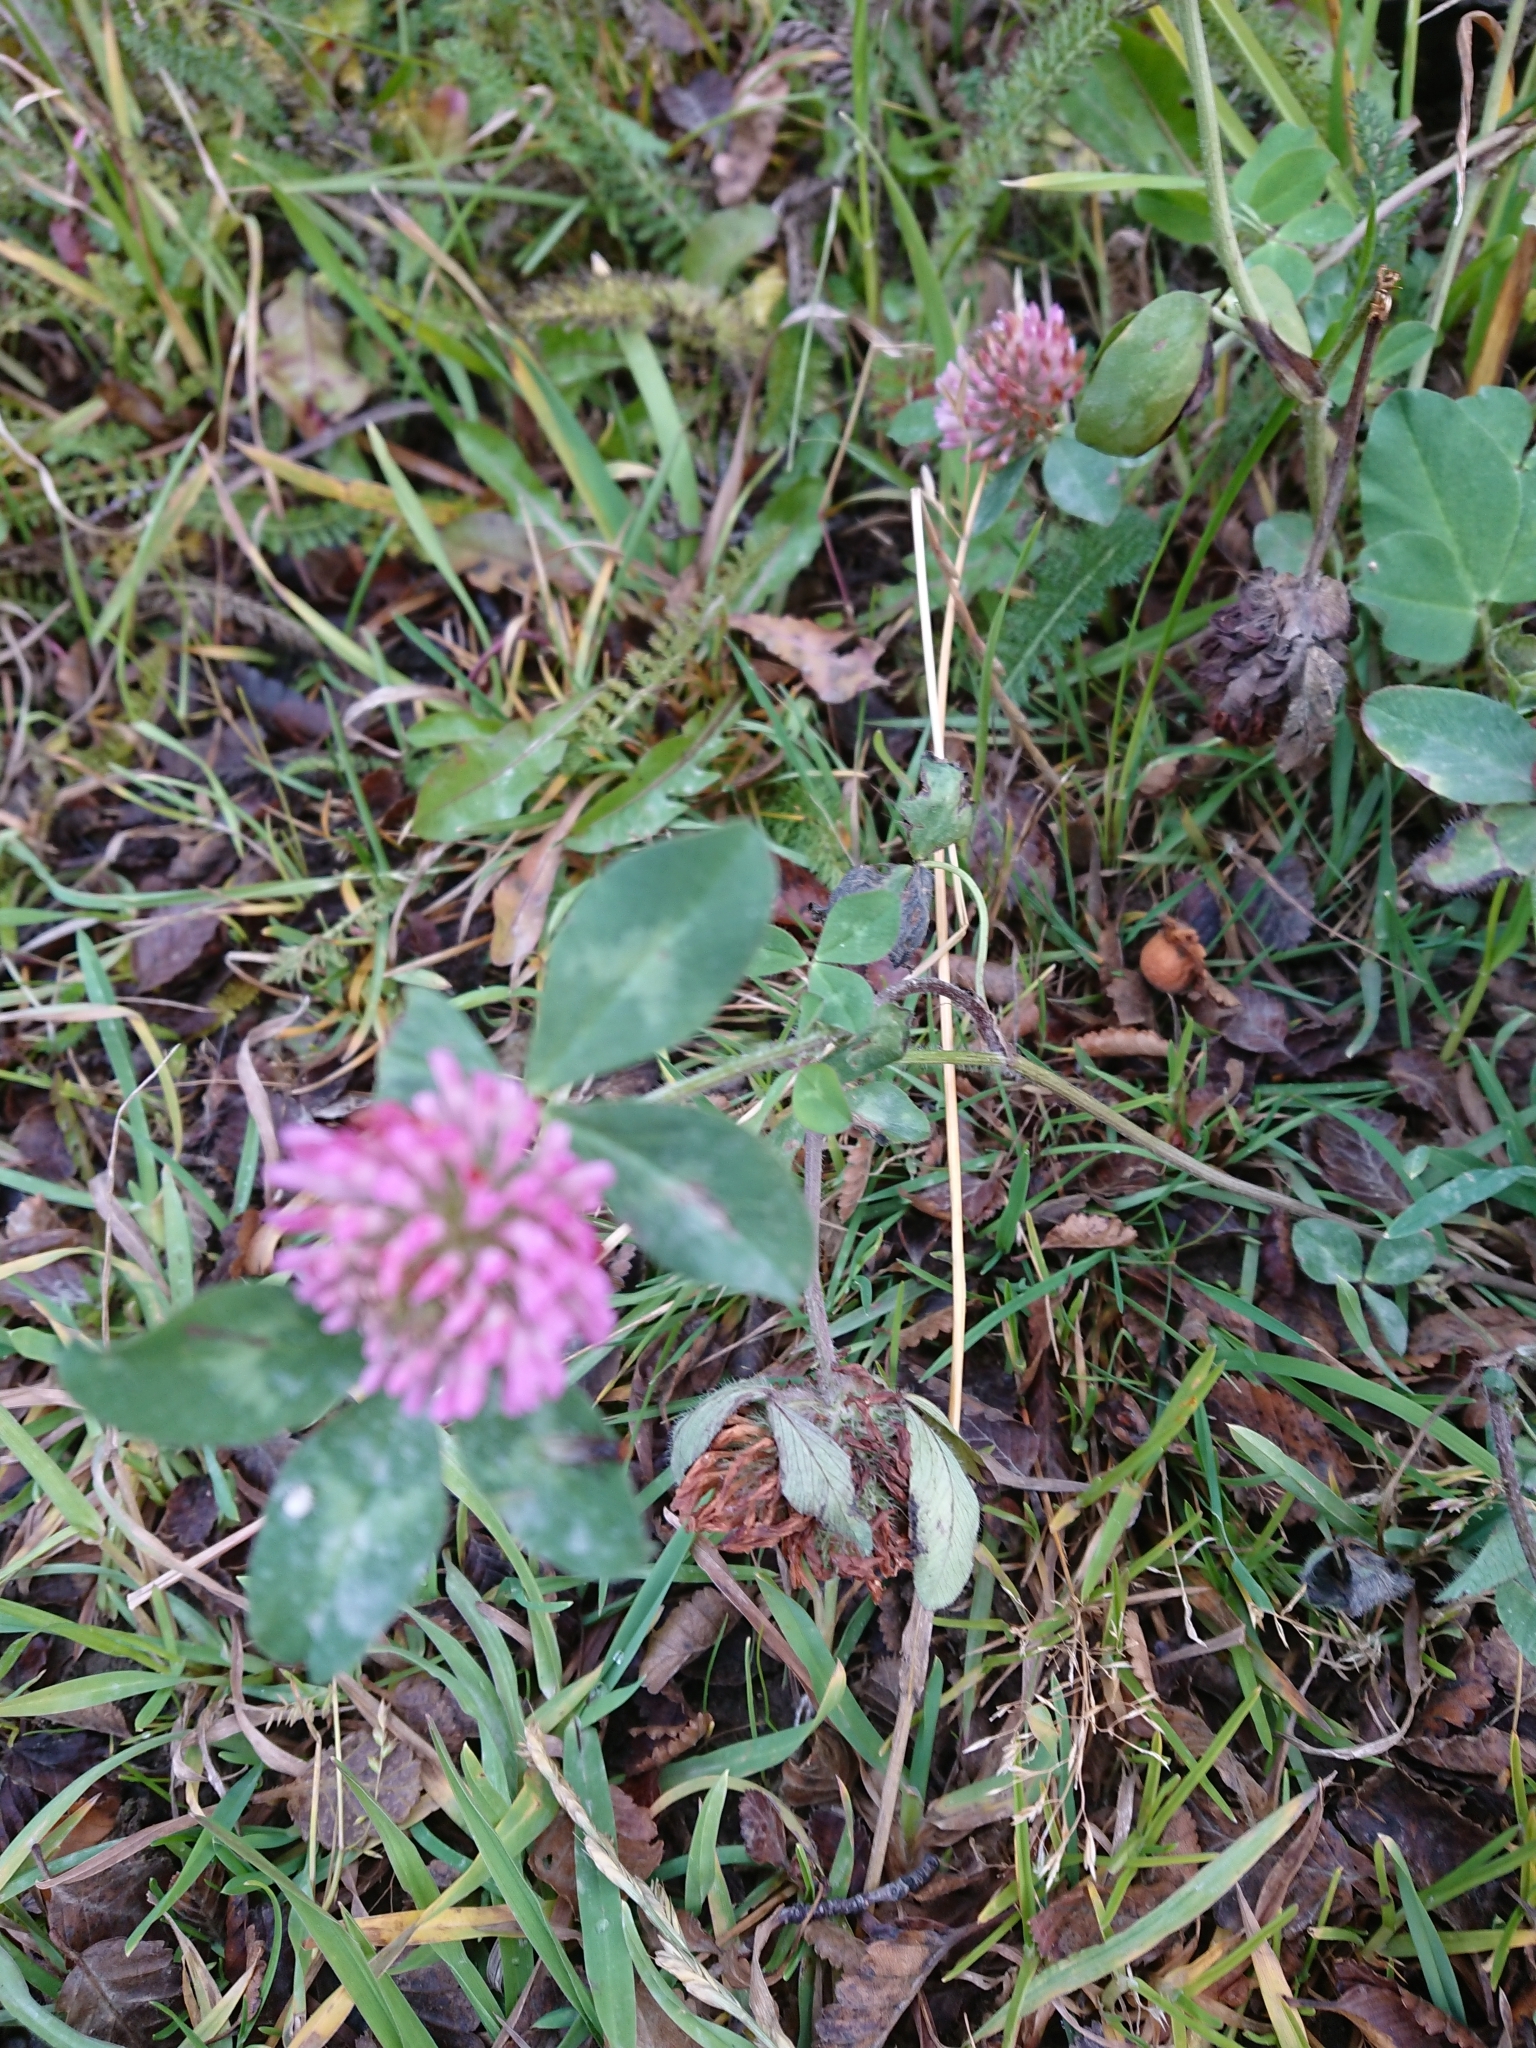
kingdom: Plantae
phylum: Tracheophyta
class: Magnoliopsida
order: Fabales
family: Fabaceae
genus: Trifolium
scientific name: Trifolium pratense
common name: Red clover
